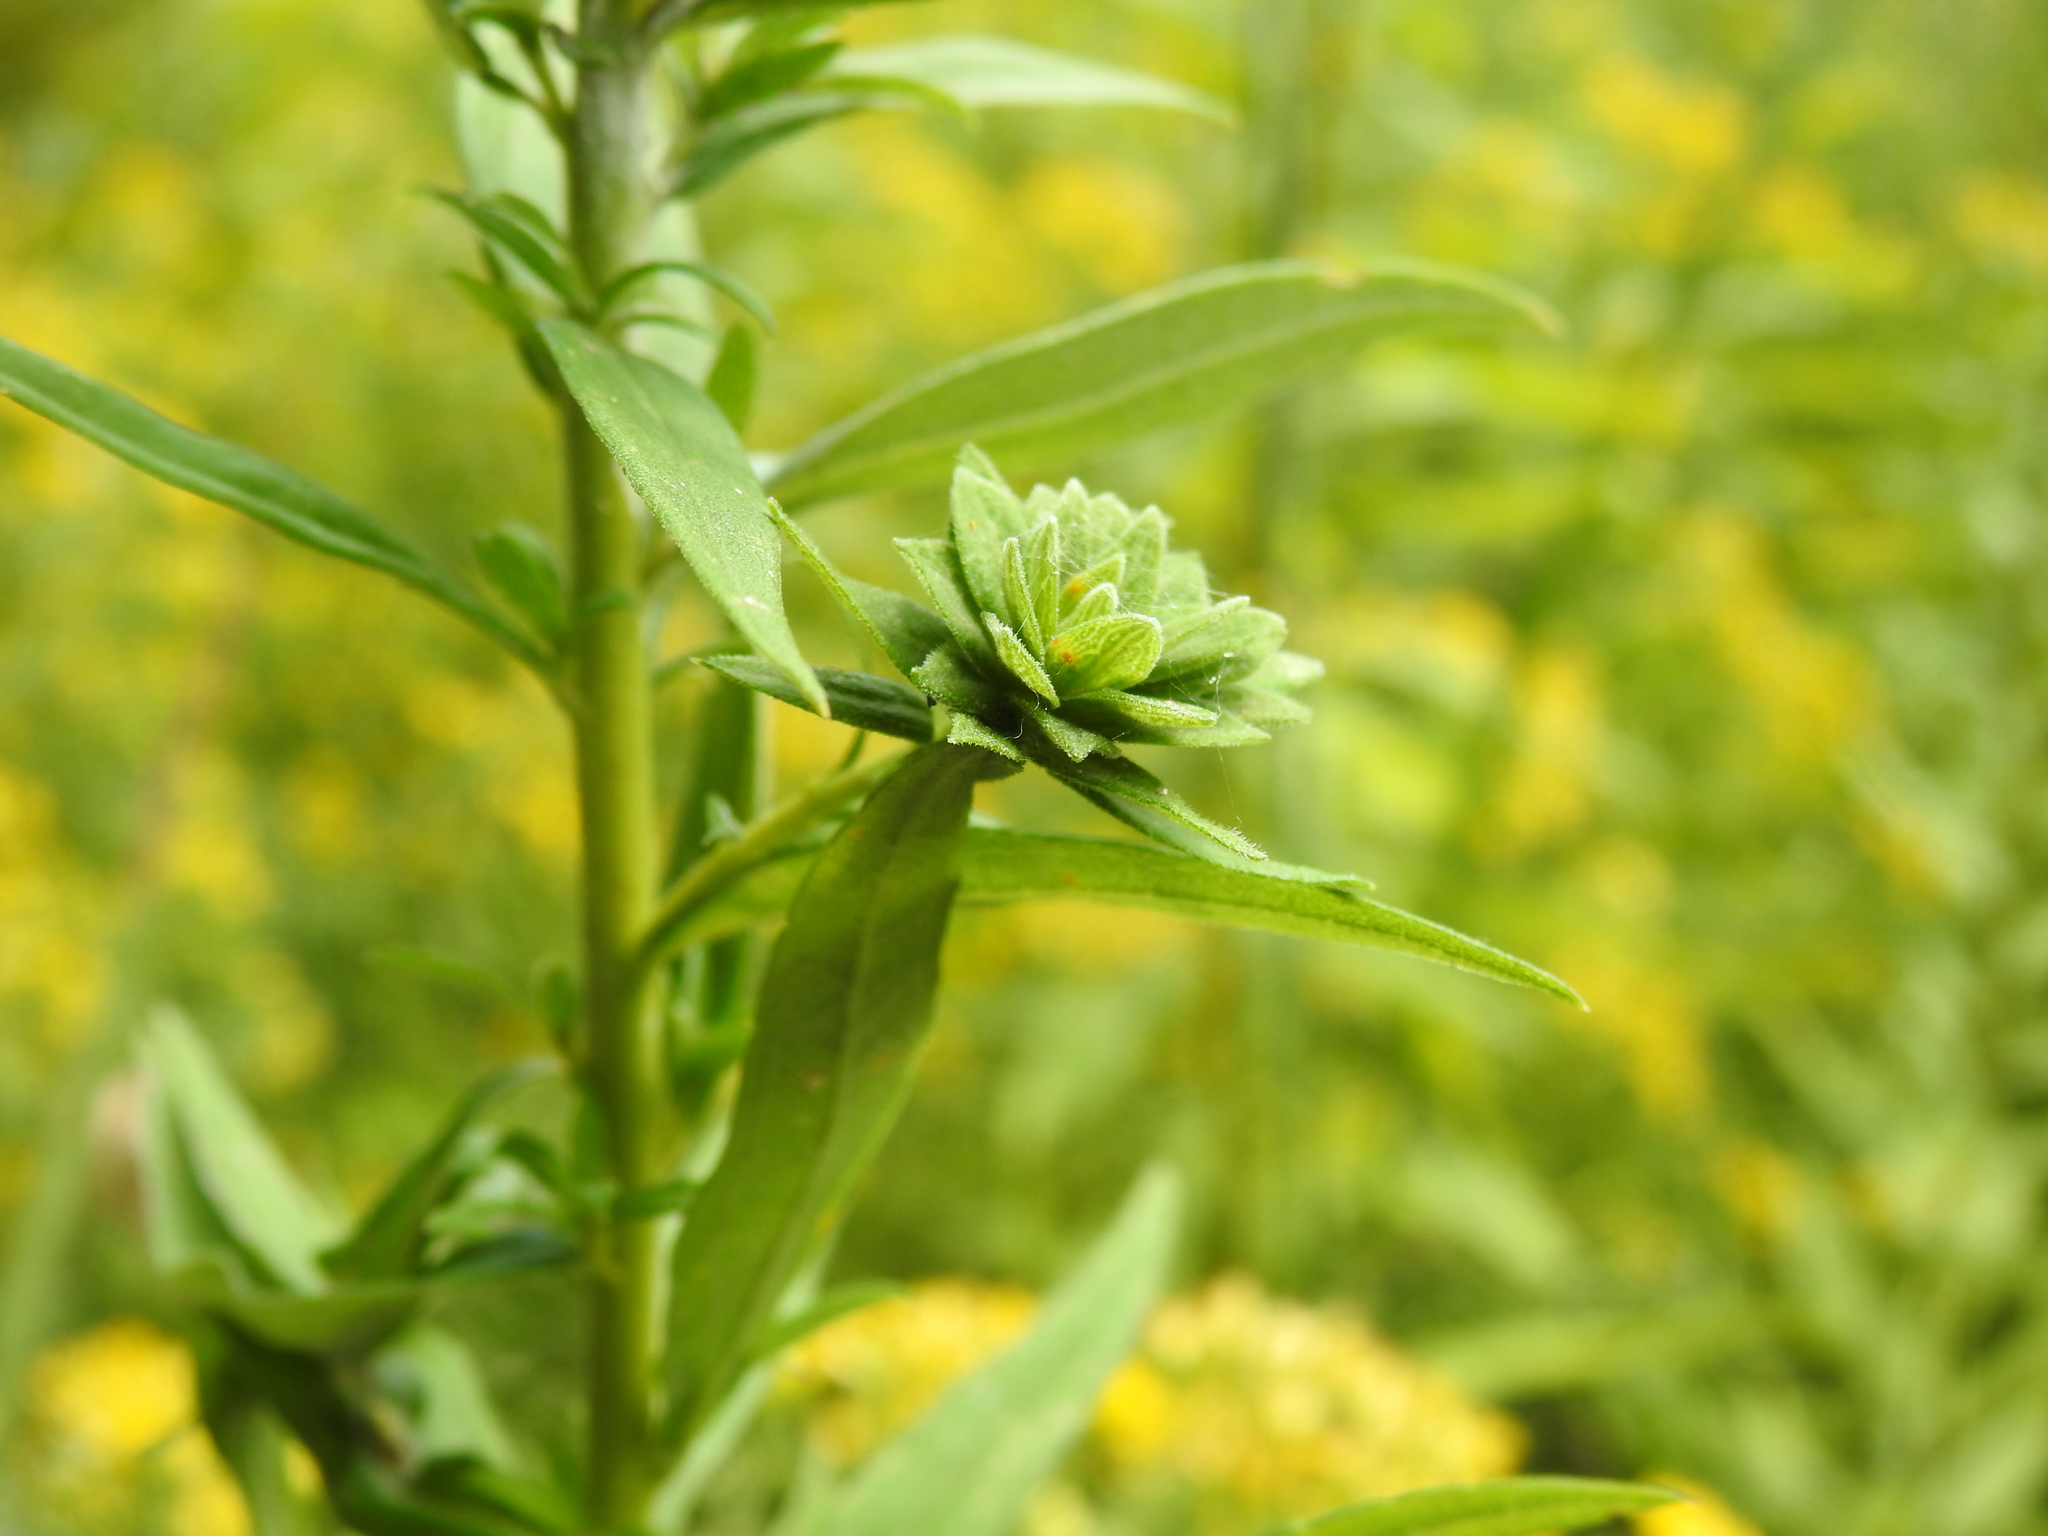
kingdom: Animalia
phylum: Arthropoda
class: Insecta
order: Diptera
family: Cecidomyiidae
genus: Asphondylia
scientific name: Asphondylia solidaginis
